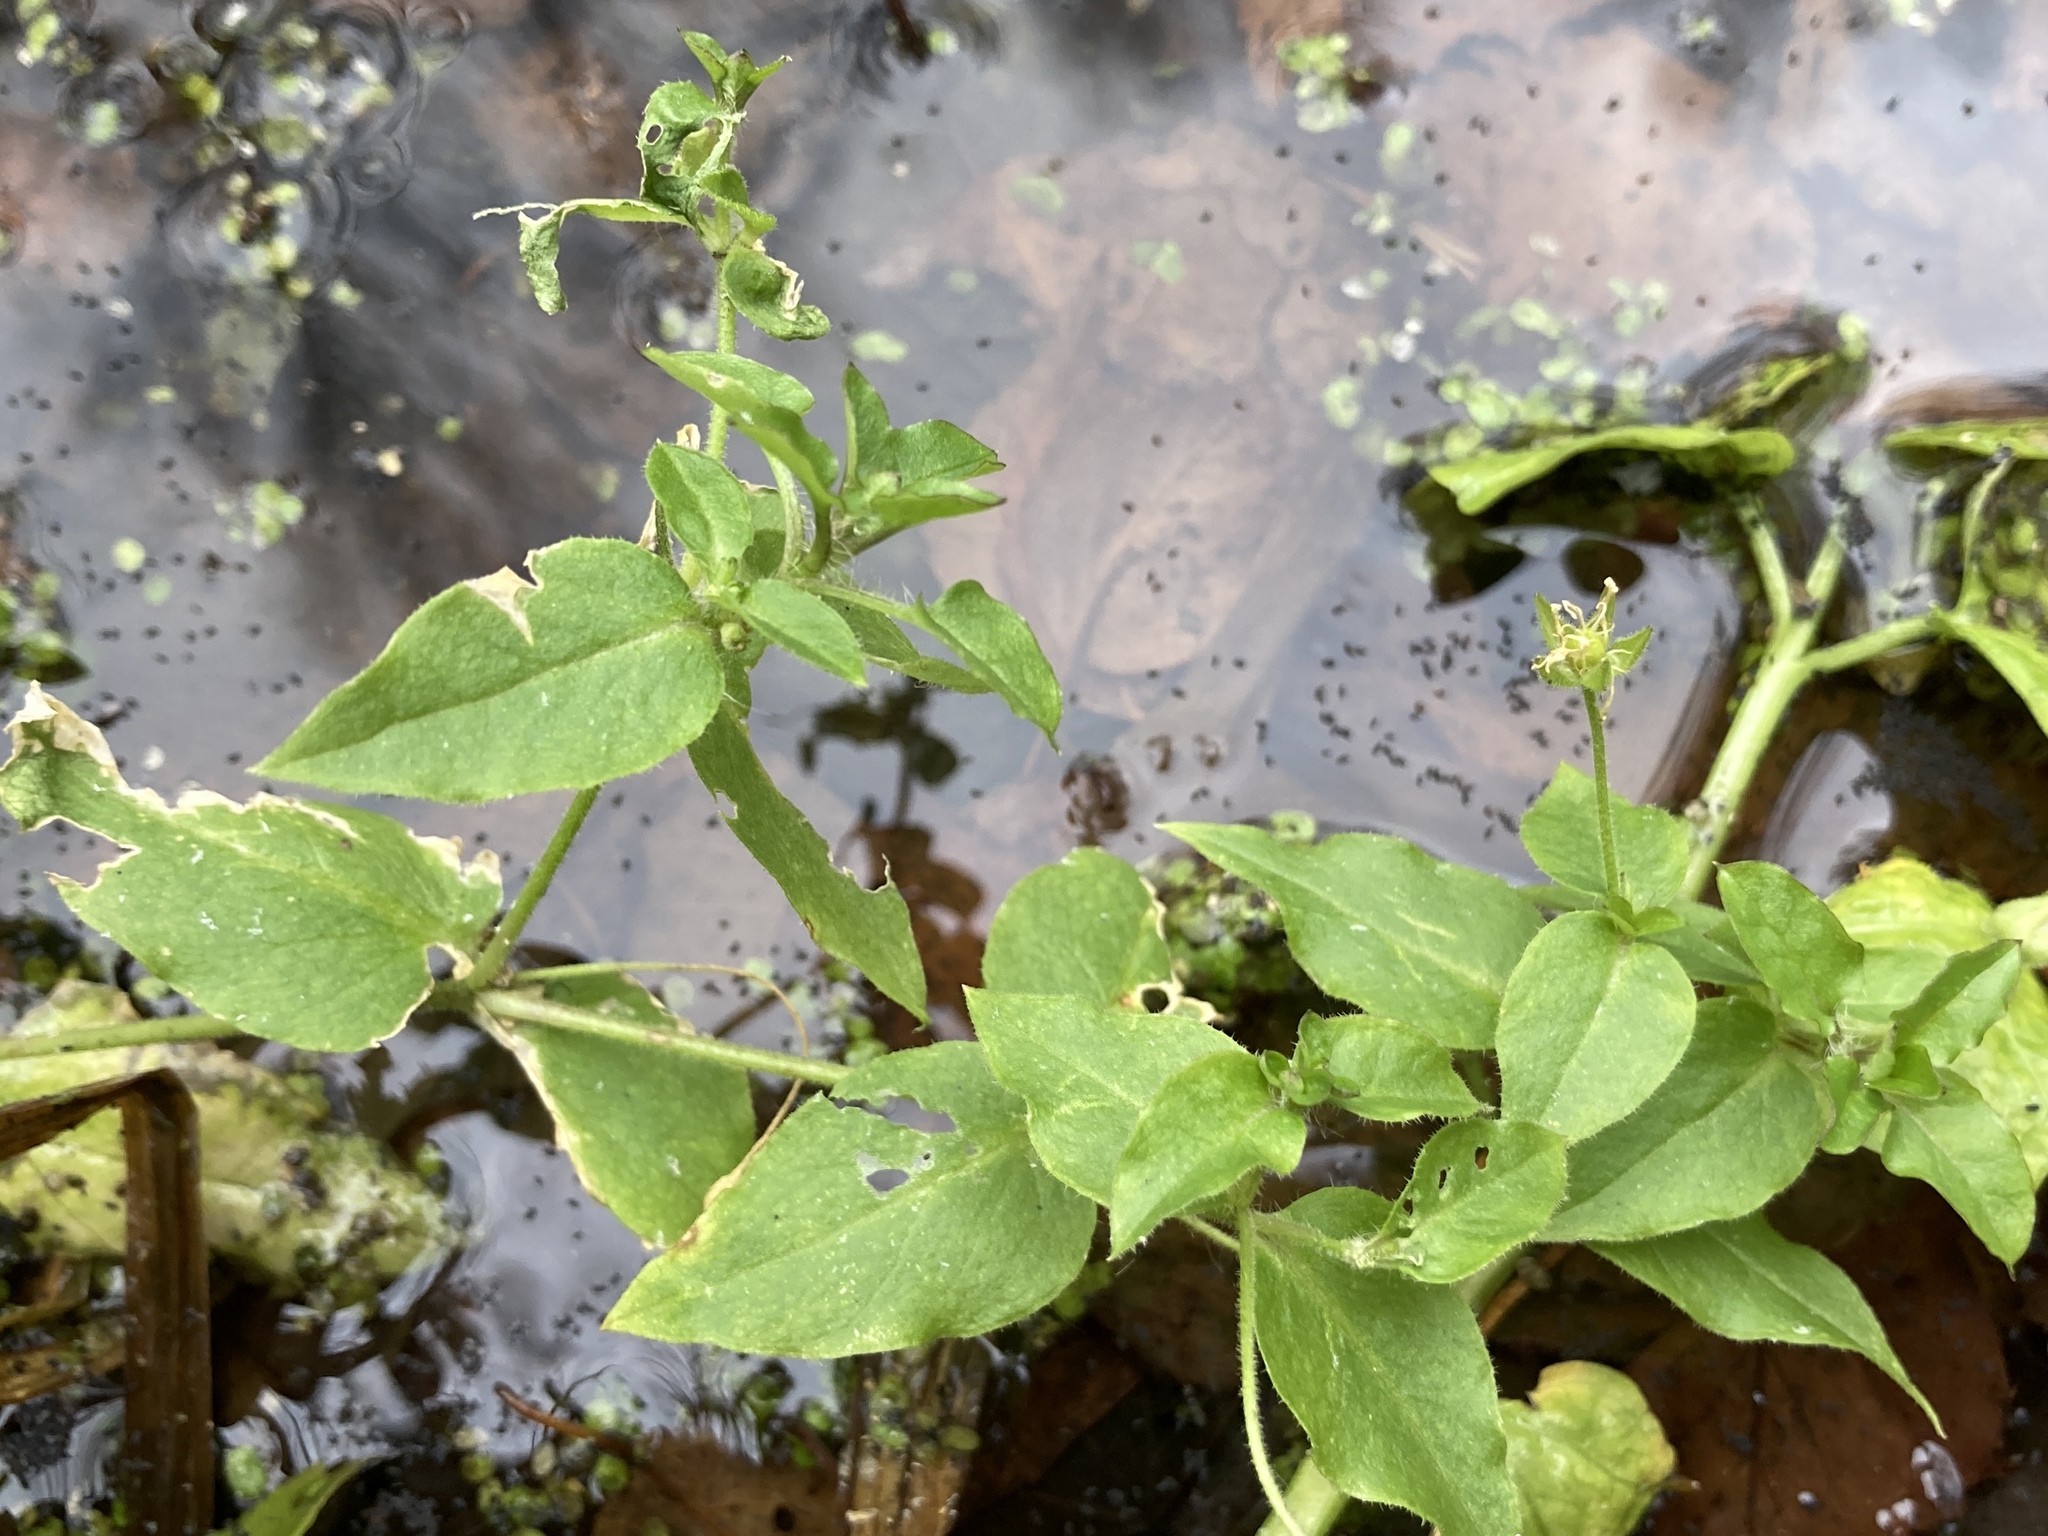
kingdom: Plantae
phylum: Tracheophyta
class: Magnoliopsida
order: Caryophyllales
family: Caryophyllaceae
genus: Stellaria
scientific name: Stellaria aquatica
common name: Water chickweed
